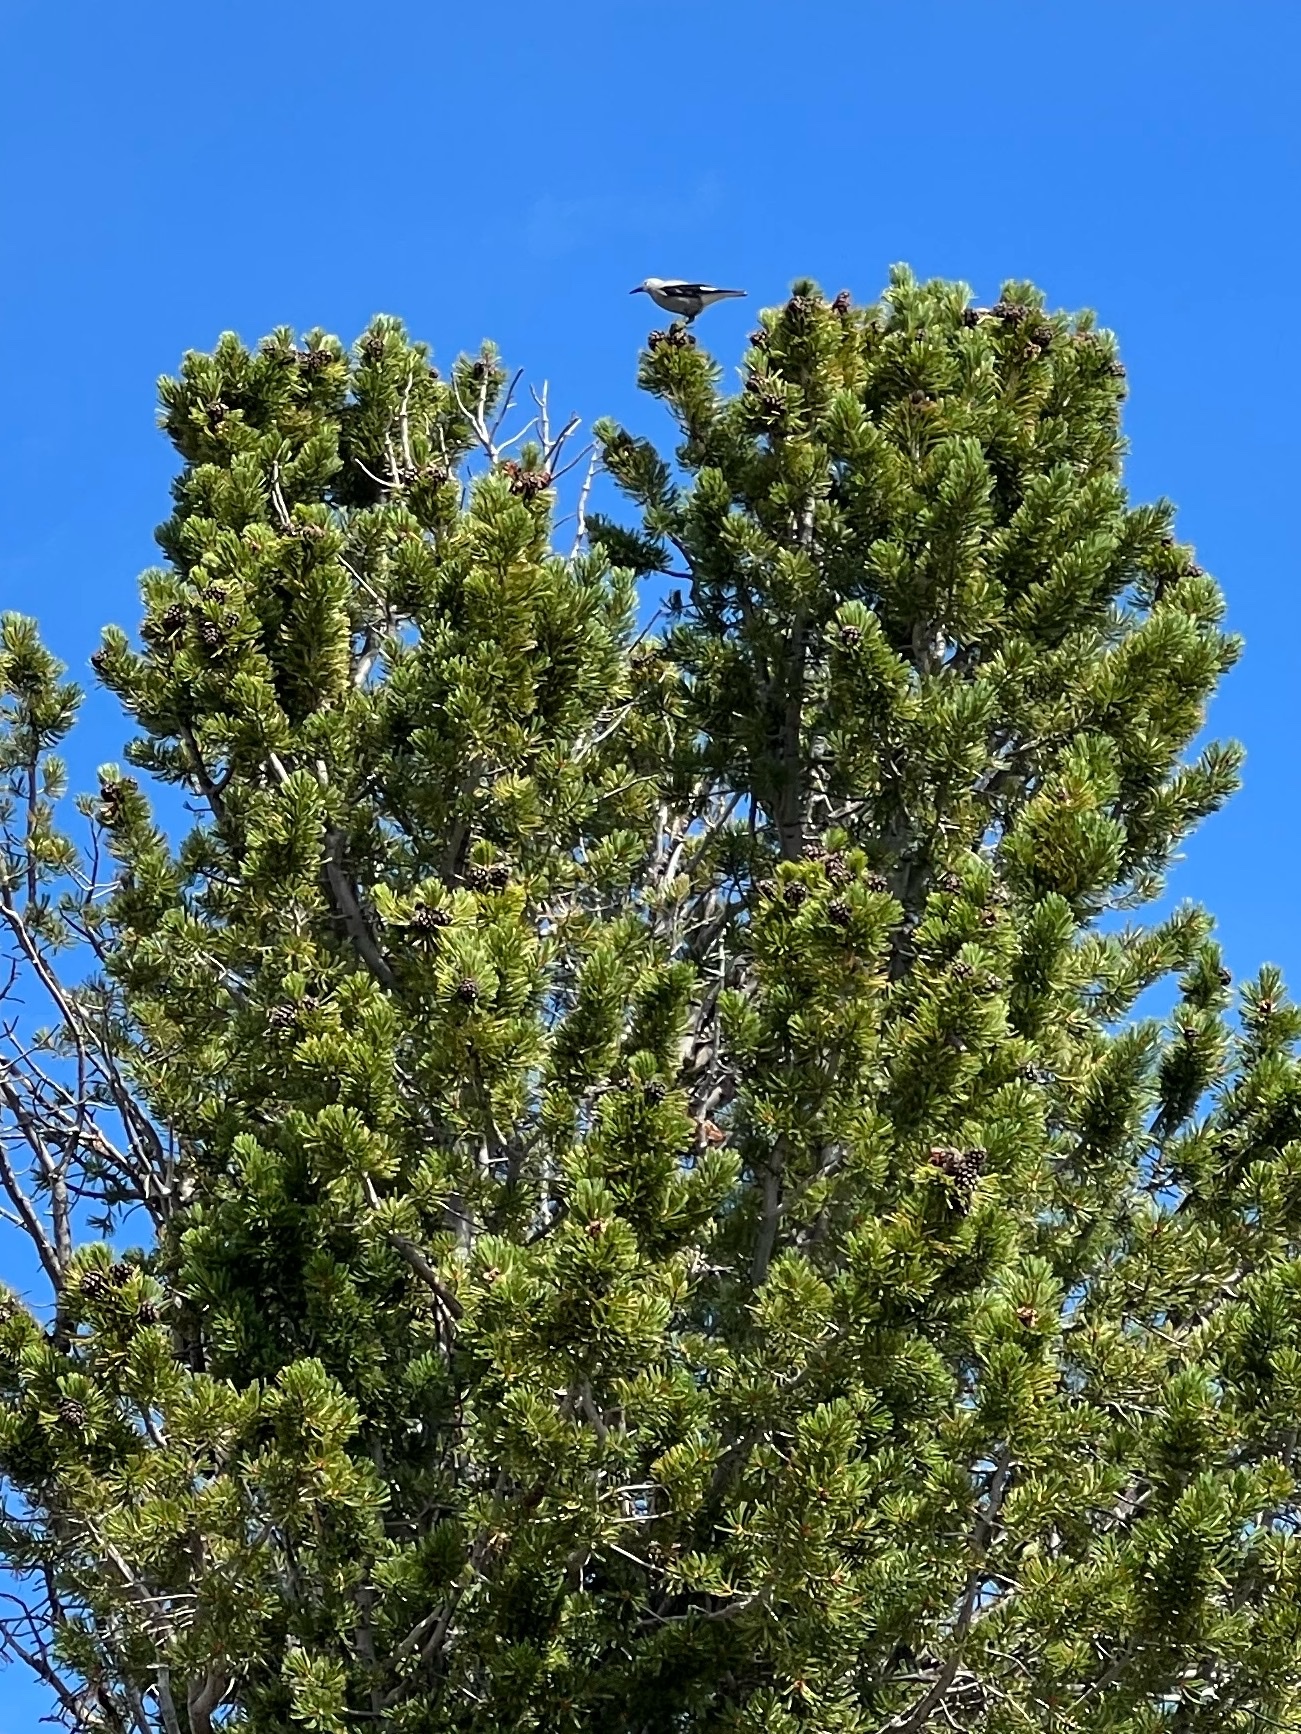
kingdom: Animalia
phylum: Chordata
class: Aves
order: Passeriformes
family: Corvidae
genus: Nucifraga
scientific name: Nucifraga columbiana
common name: Clark's nutcracker
